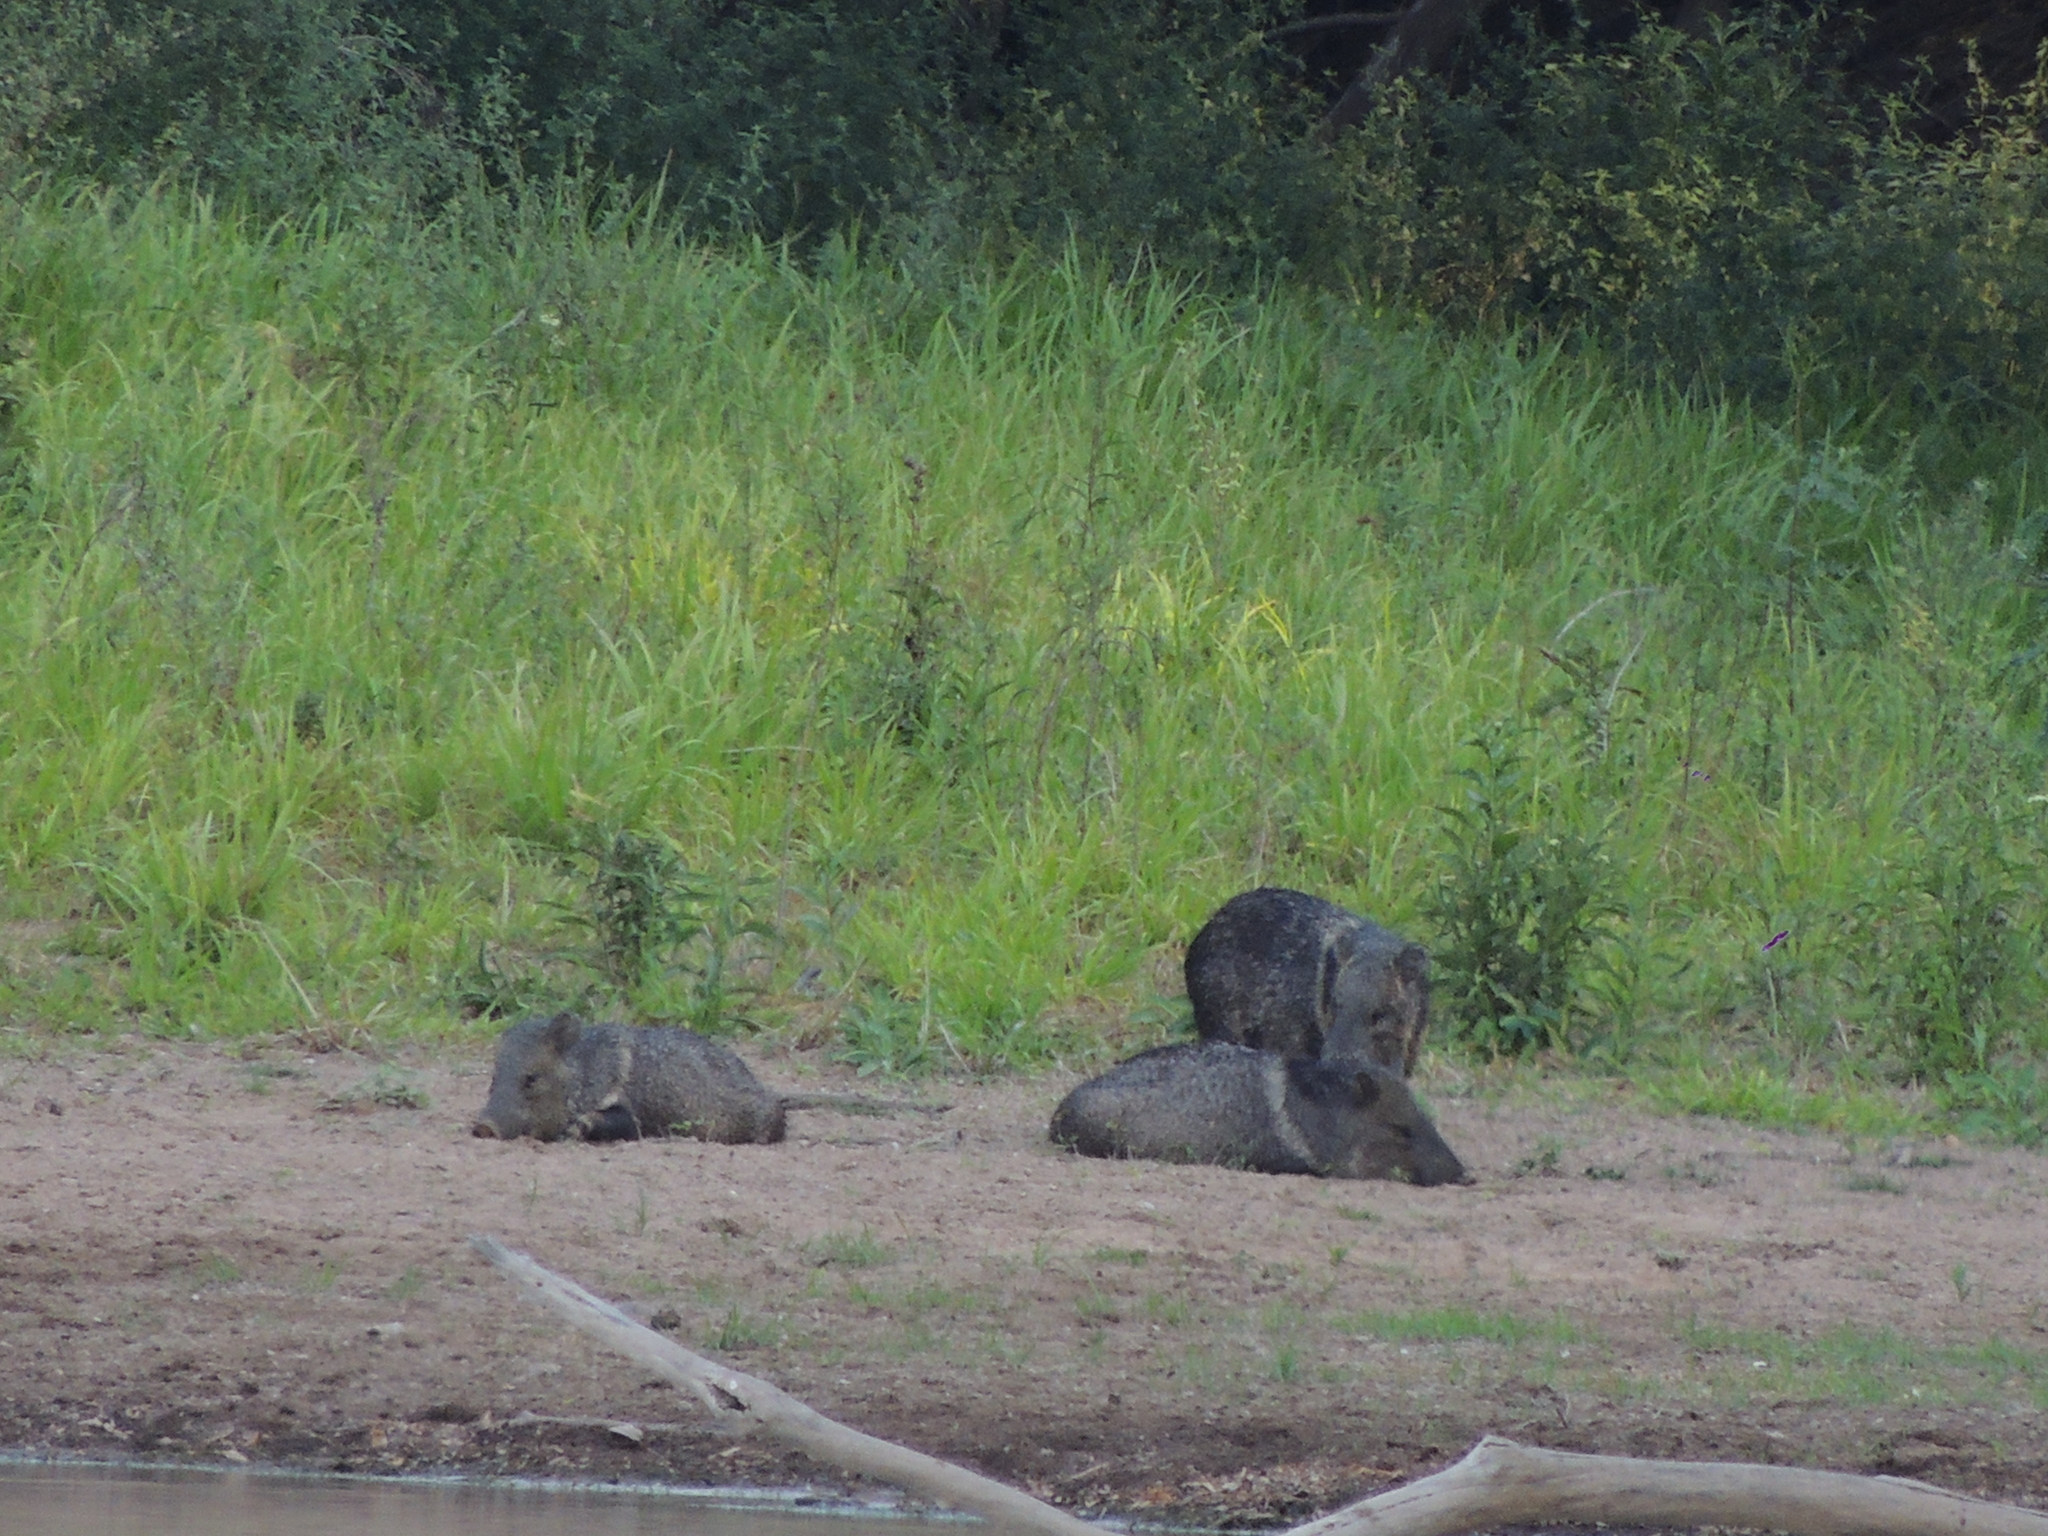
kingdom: Animalia
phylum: Chordata
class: Mammalia
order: Artiodactyla
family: Tayassuidae
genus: Pecari
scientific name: Pecari tajacu
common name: Collared peccary
